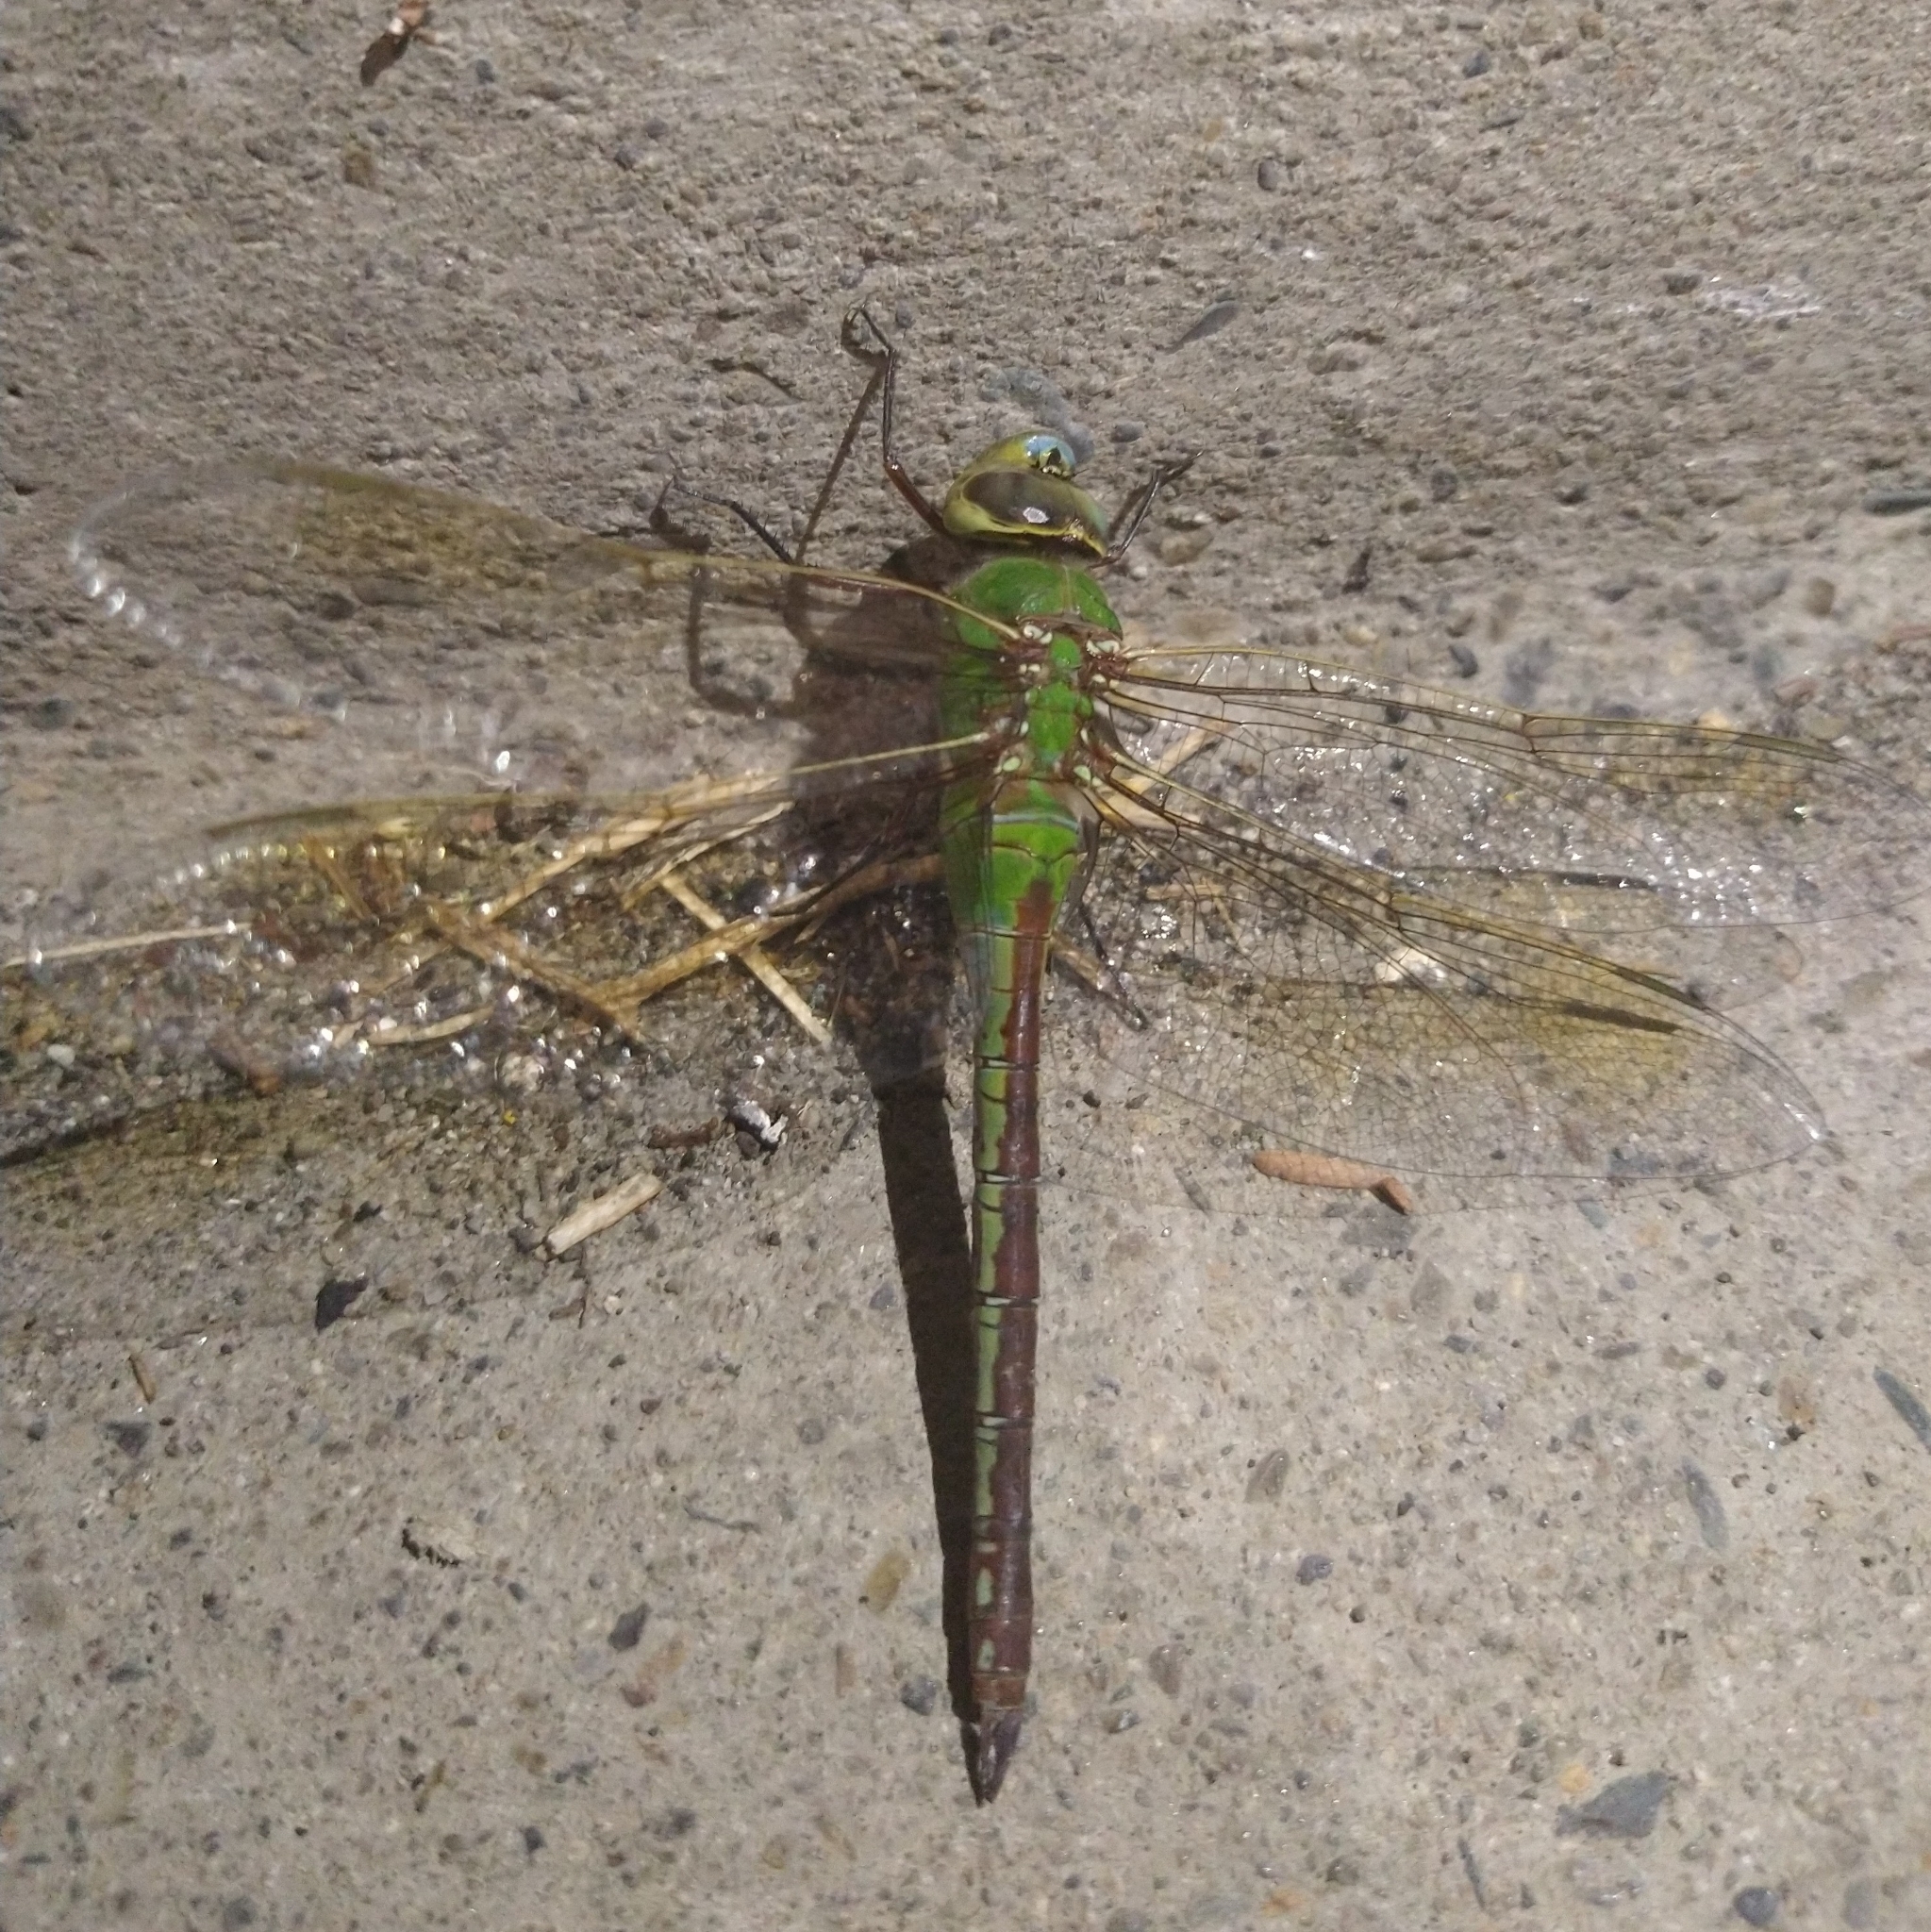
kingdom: Animalia
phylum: Arthropoda
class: Insecta
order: Odonata
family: Aeshnidae
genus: Anax
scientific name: Anax junius
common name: Common green darner
